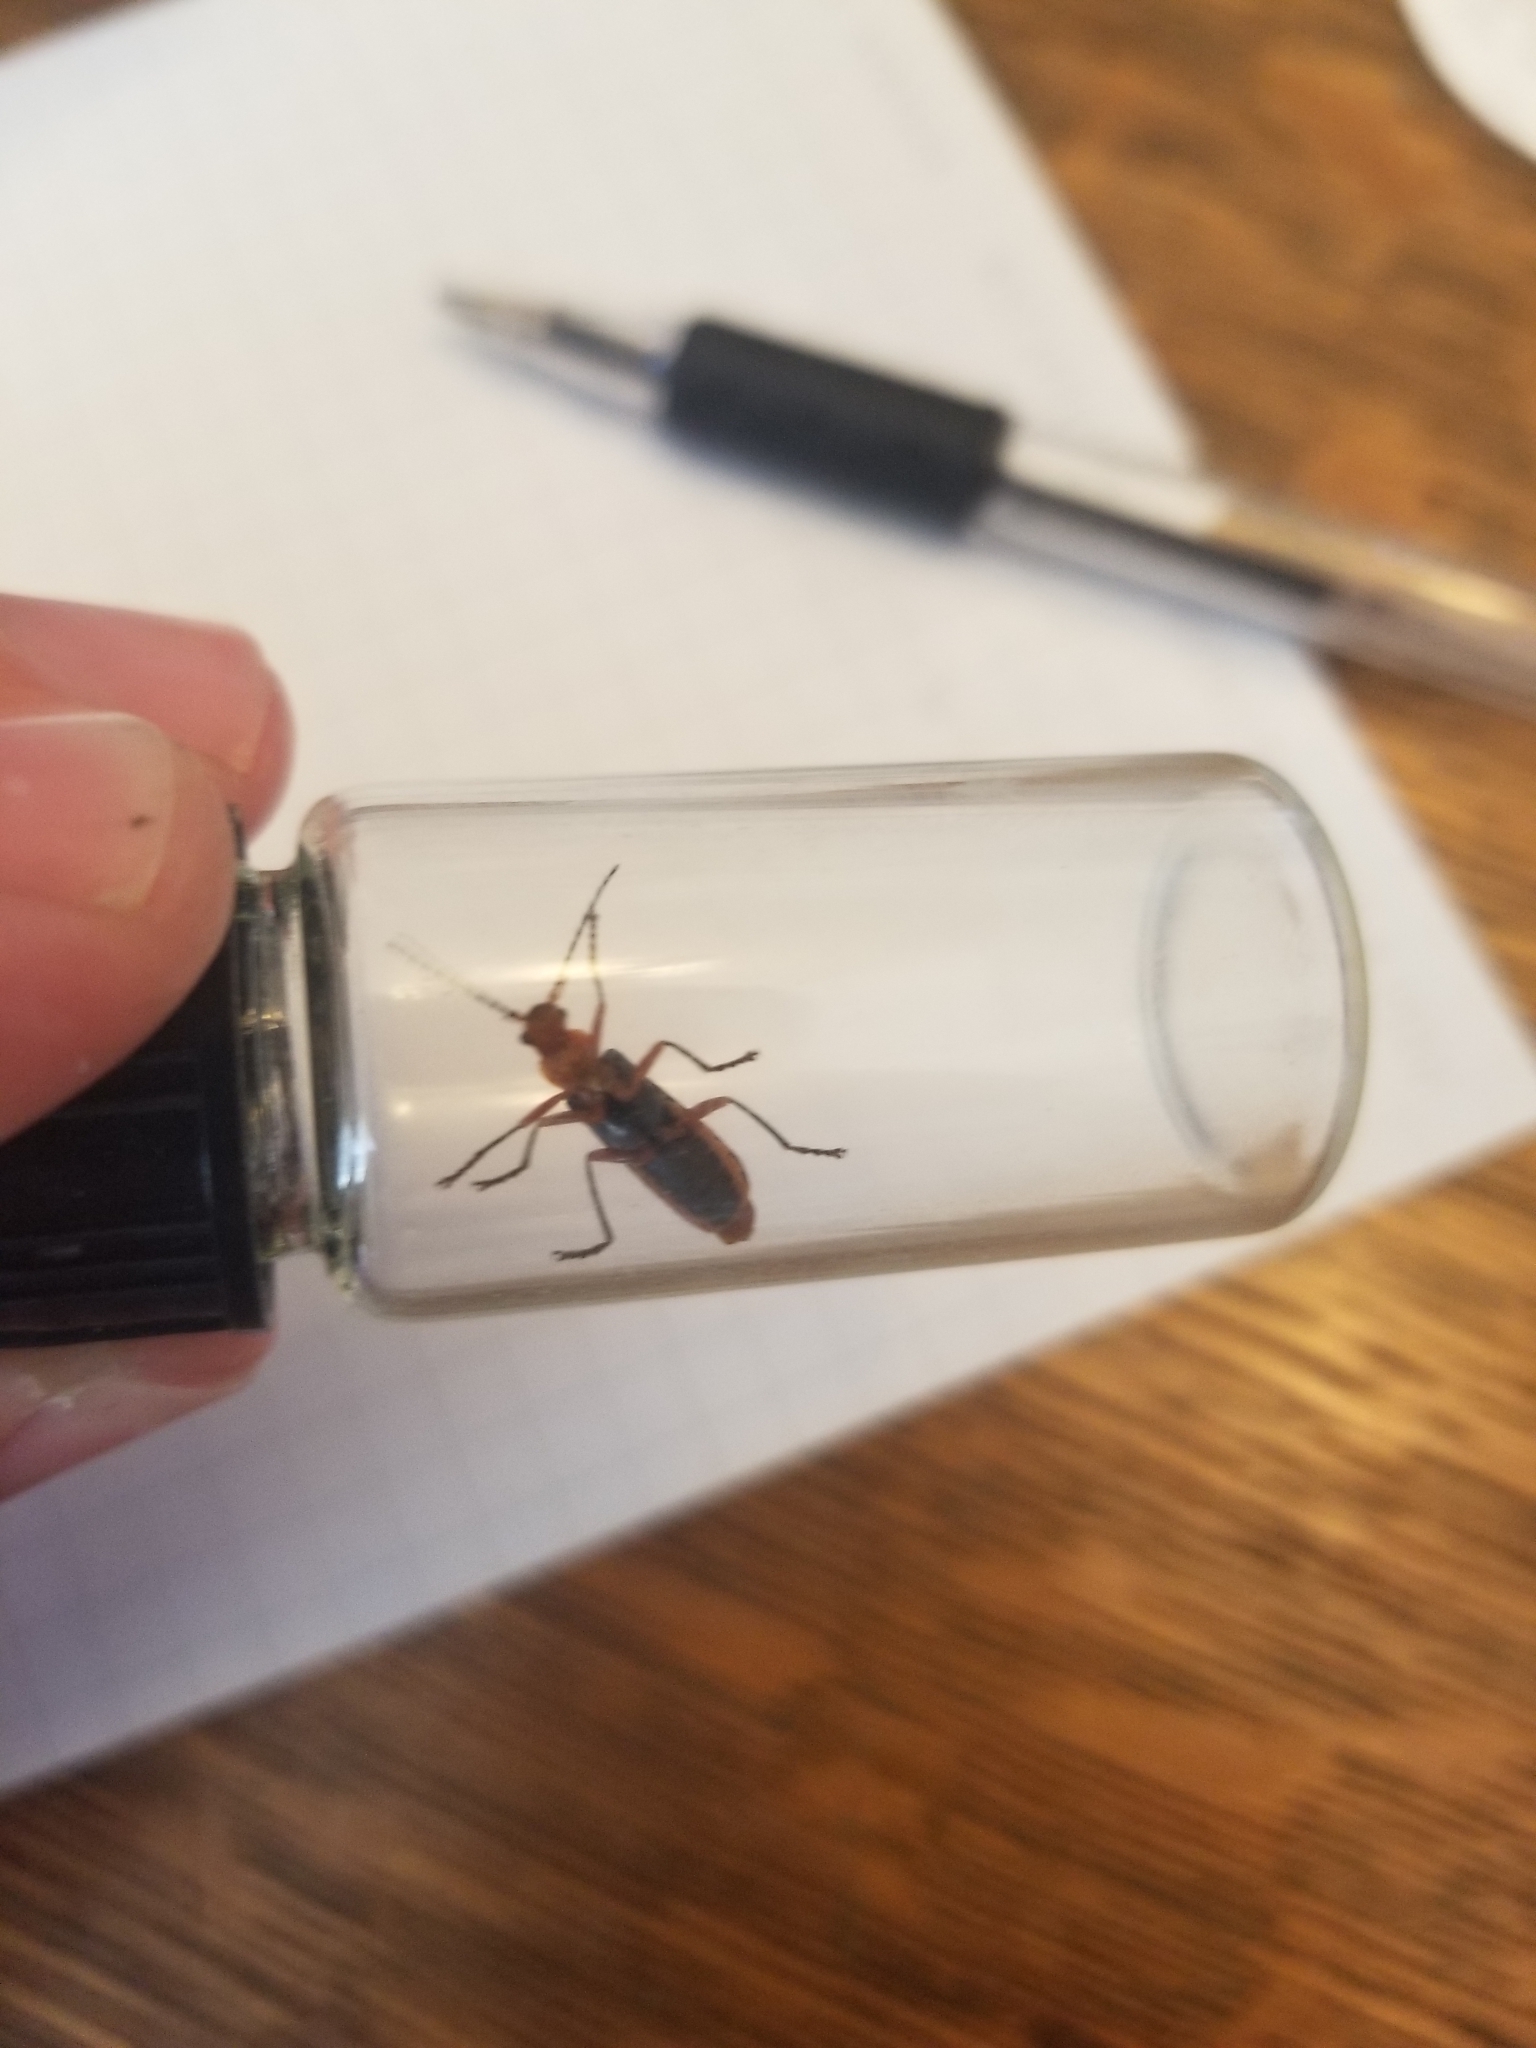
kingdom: Animalia
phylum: Arthropoda
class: Insecta
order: Coleoptera
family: Cantharidae
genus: Podabrus
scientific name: Podabrus pruinosus
